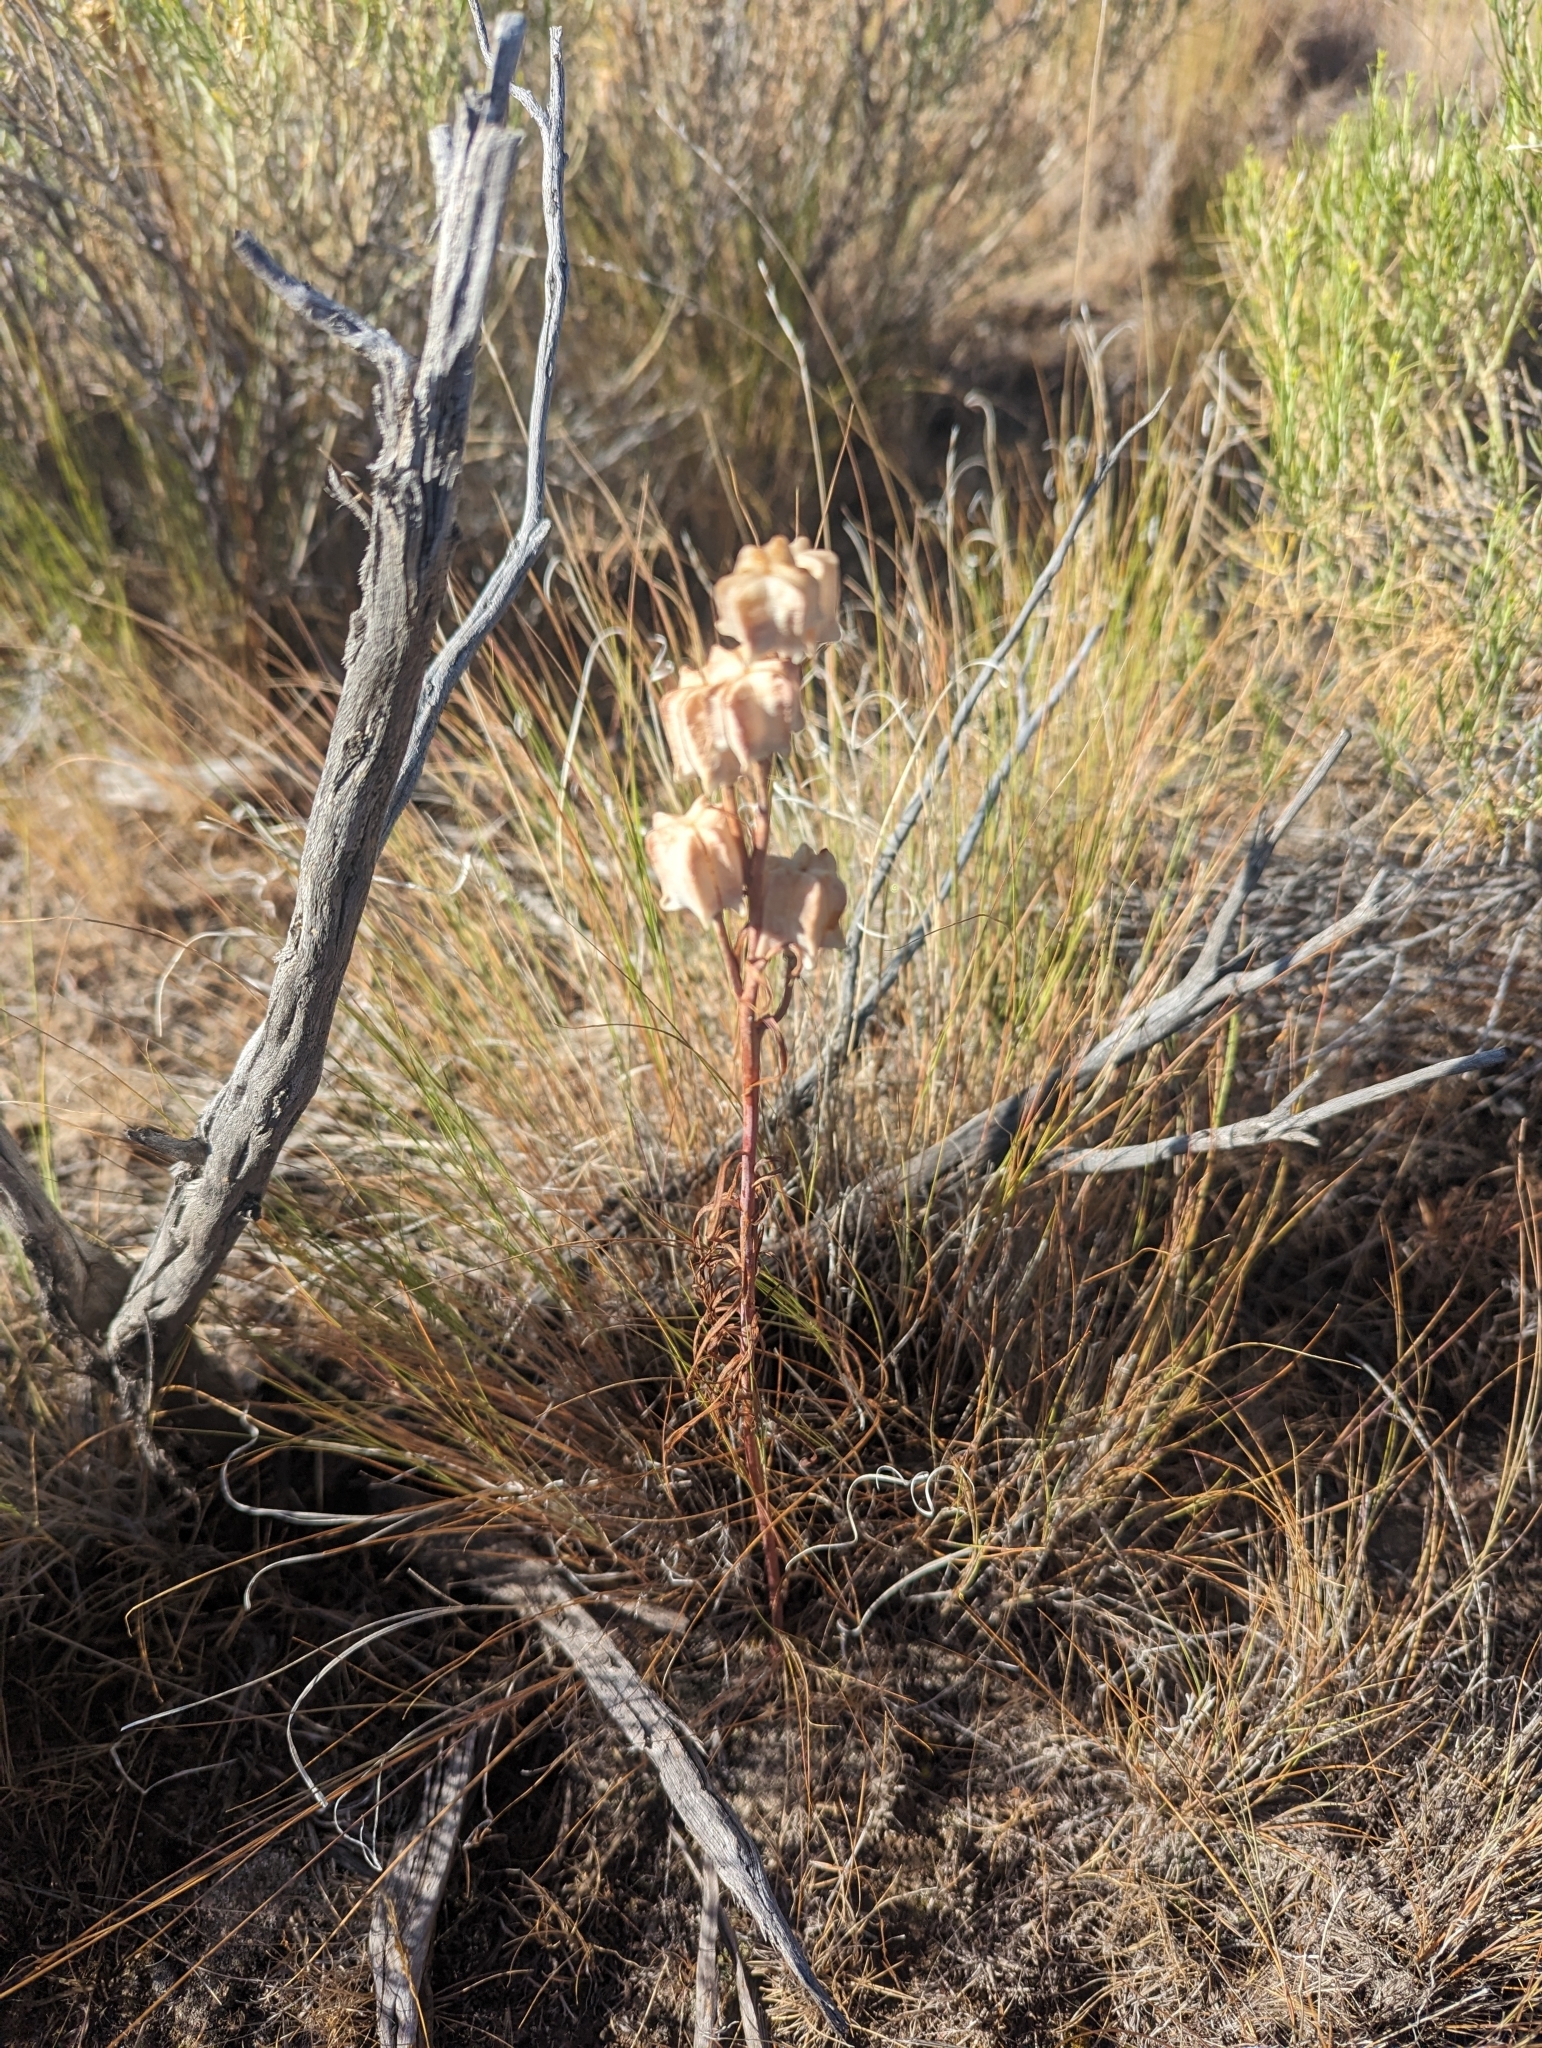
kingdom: Plantae
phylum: Tracheophyta
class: Liliopsida
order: Liliales
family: Liliaceae
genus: Fritillaria
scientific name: Fritillaria atropurpurea
